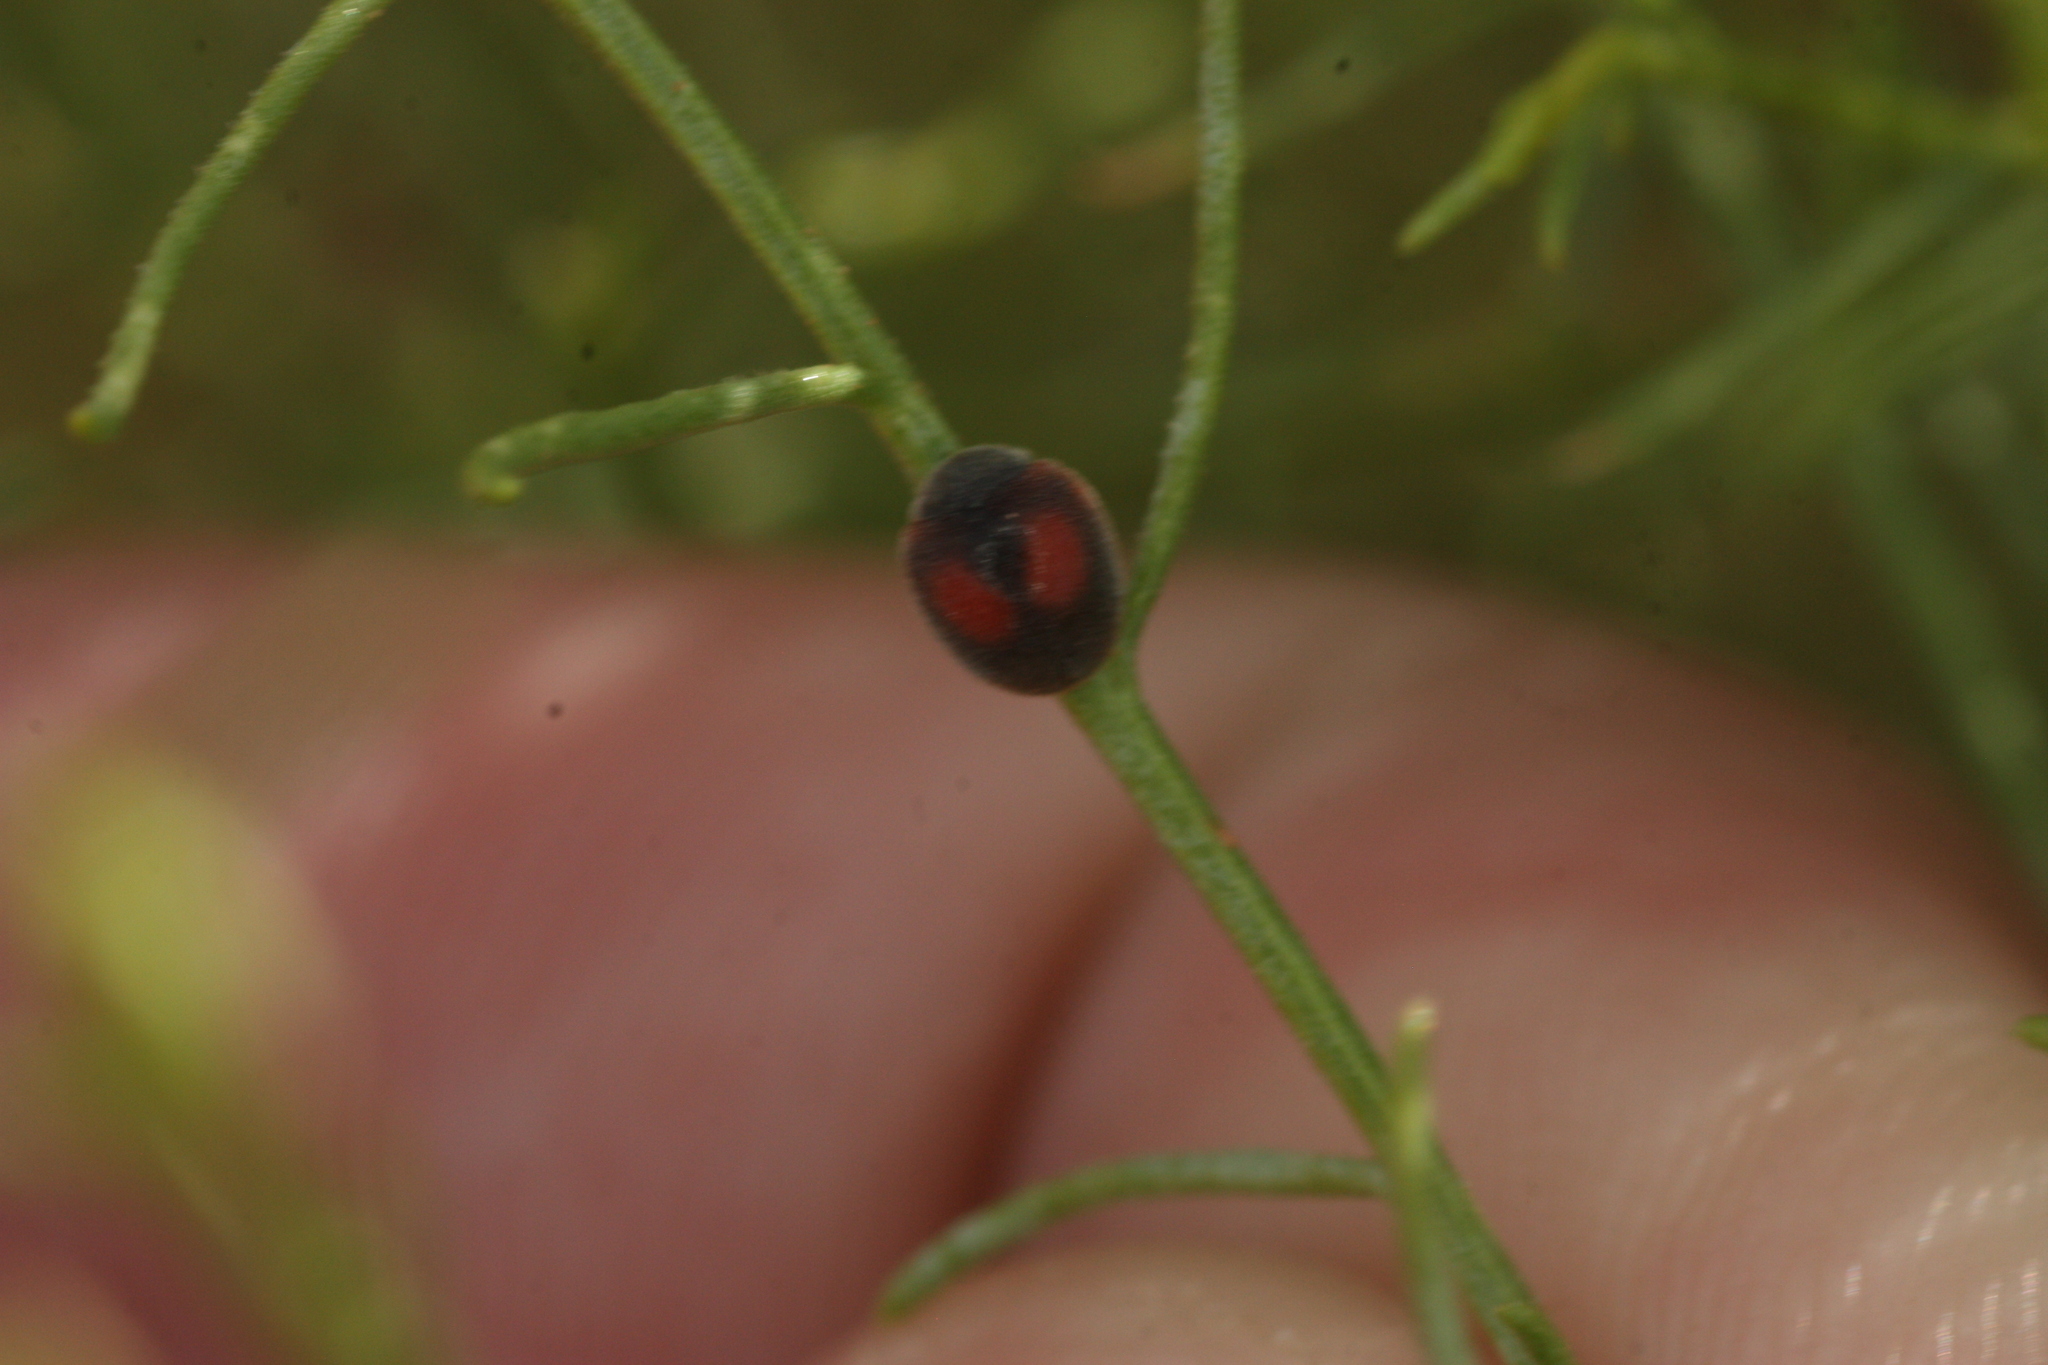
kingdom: Animalia
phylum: Arthropoda
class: Insecta
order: Coleoptera
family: Coccinellidae
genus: Novius
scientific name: Novius virginalis
